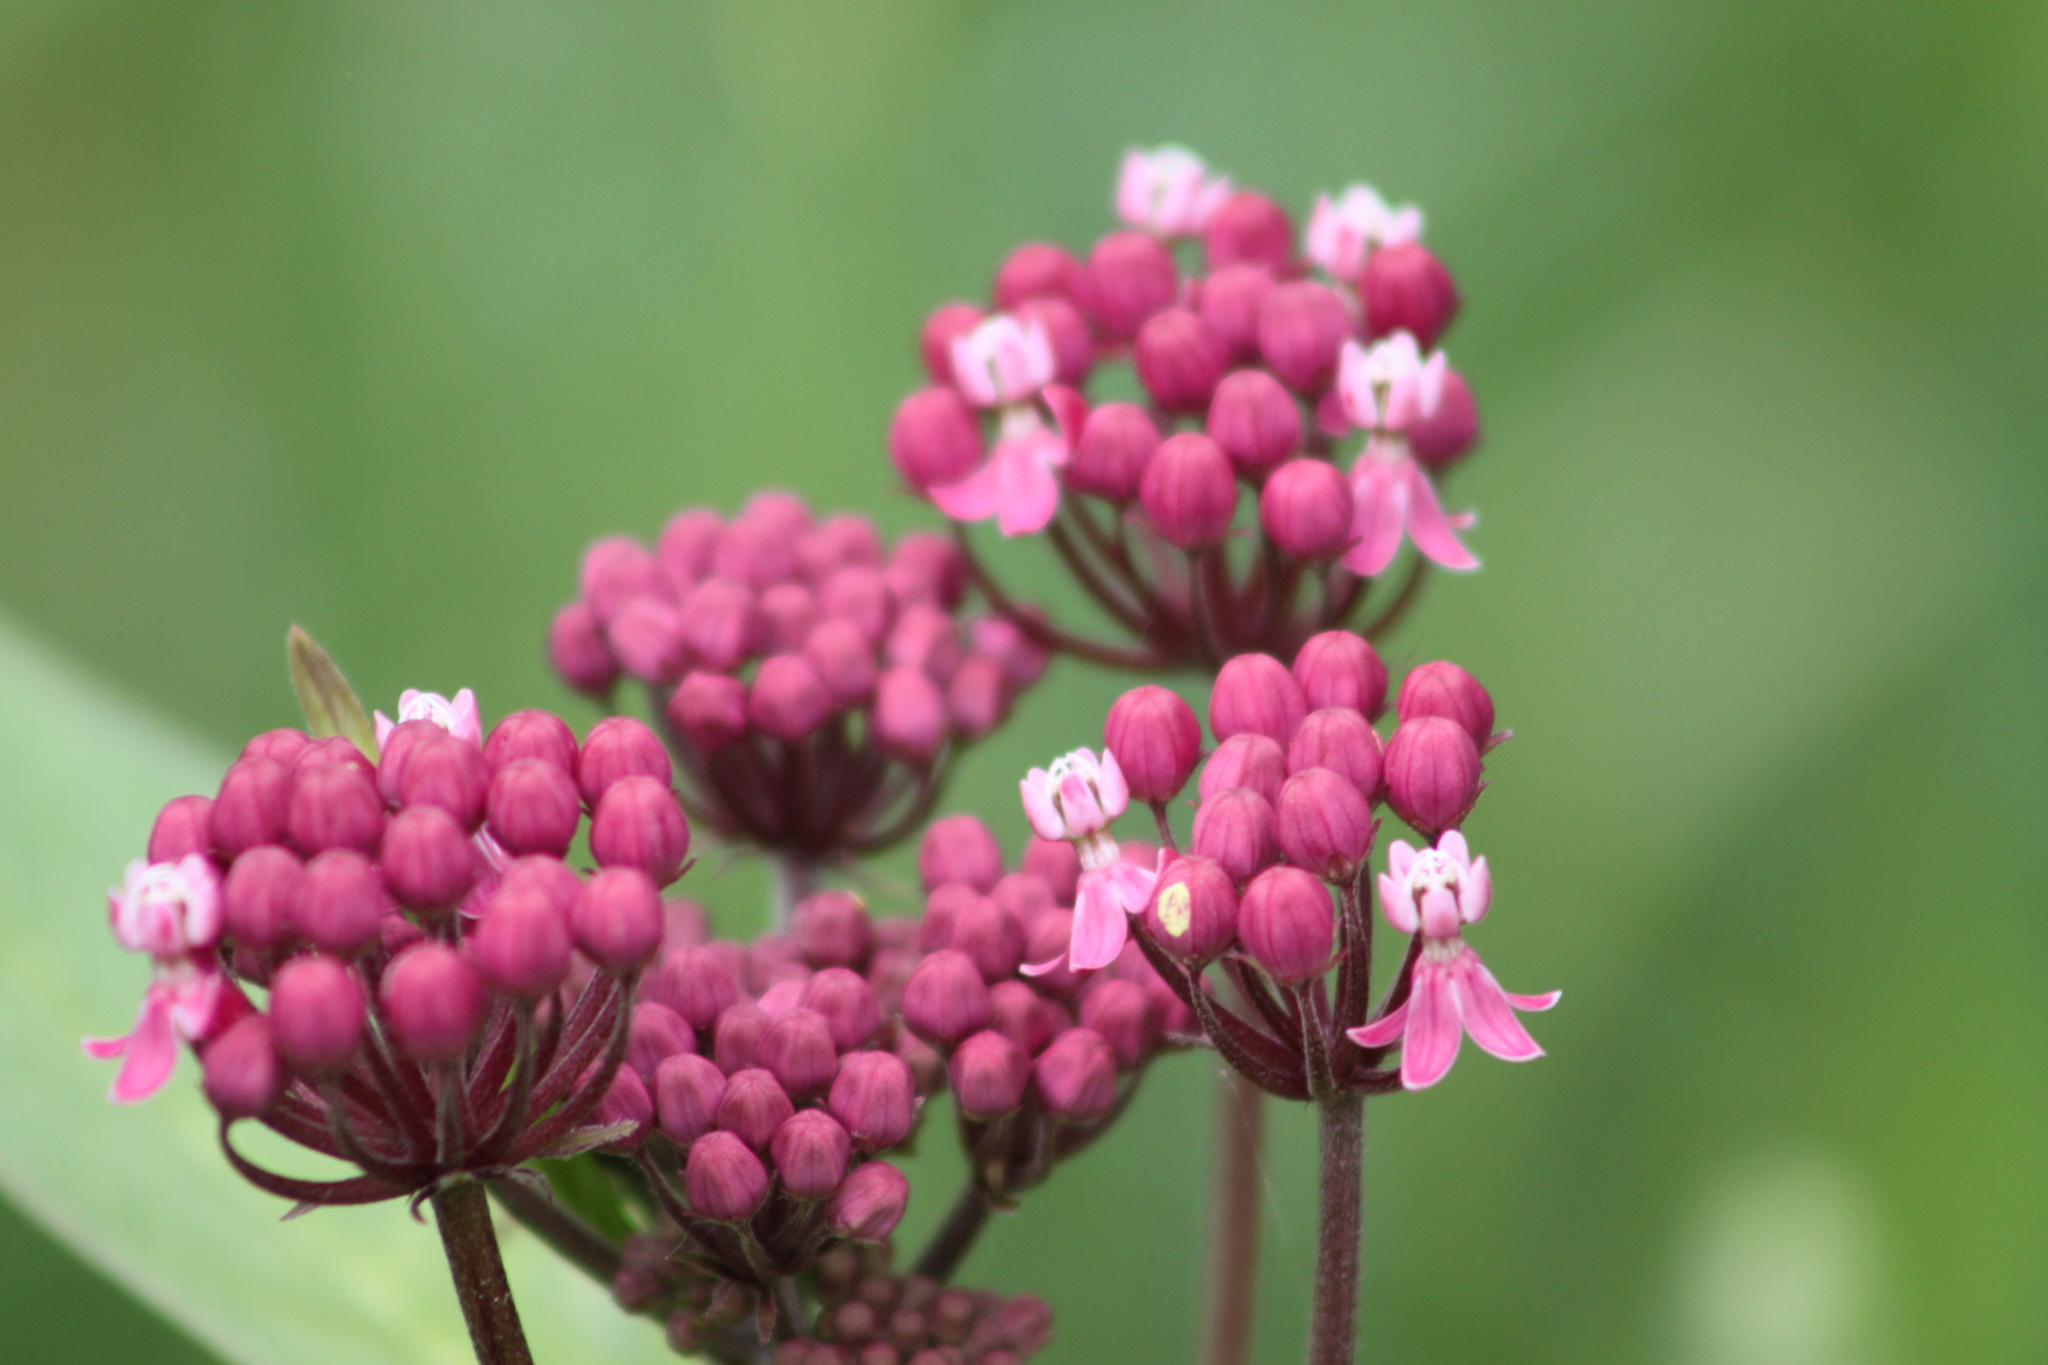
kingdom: Plantae
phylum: Tracheophyta
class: Magnoliopsida
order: Gentianales
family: Apocynaceae
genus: Asclepias
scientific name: Asclepias incarnata
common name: Swamp milkweed
